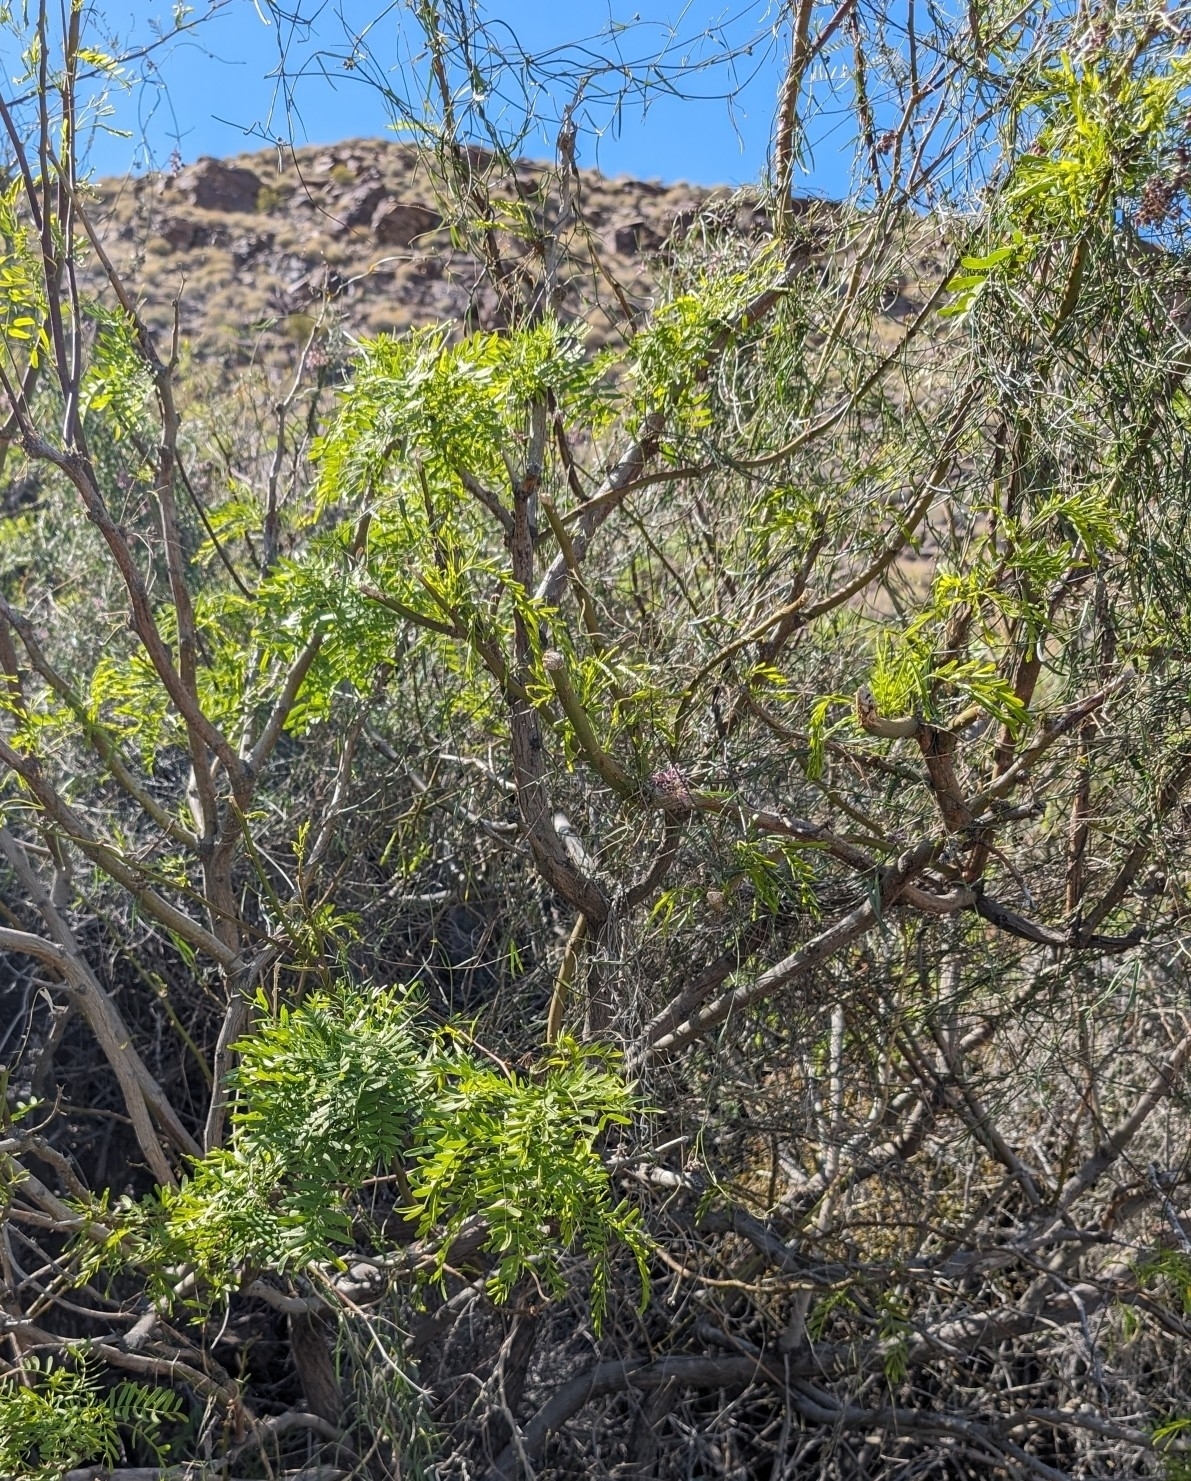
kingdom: Plantae
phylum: Tracheophyta
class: Magnoliopsida
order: Fabales
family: Fabaceae
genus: Prosopis
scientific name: Prosopis pubescens
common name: Screw-bean
